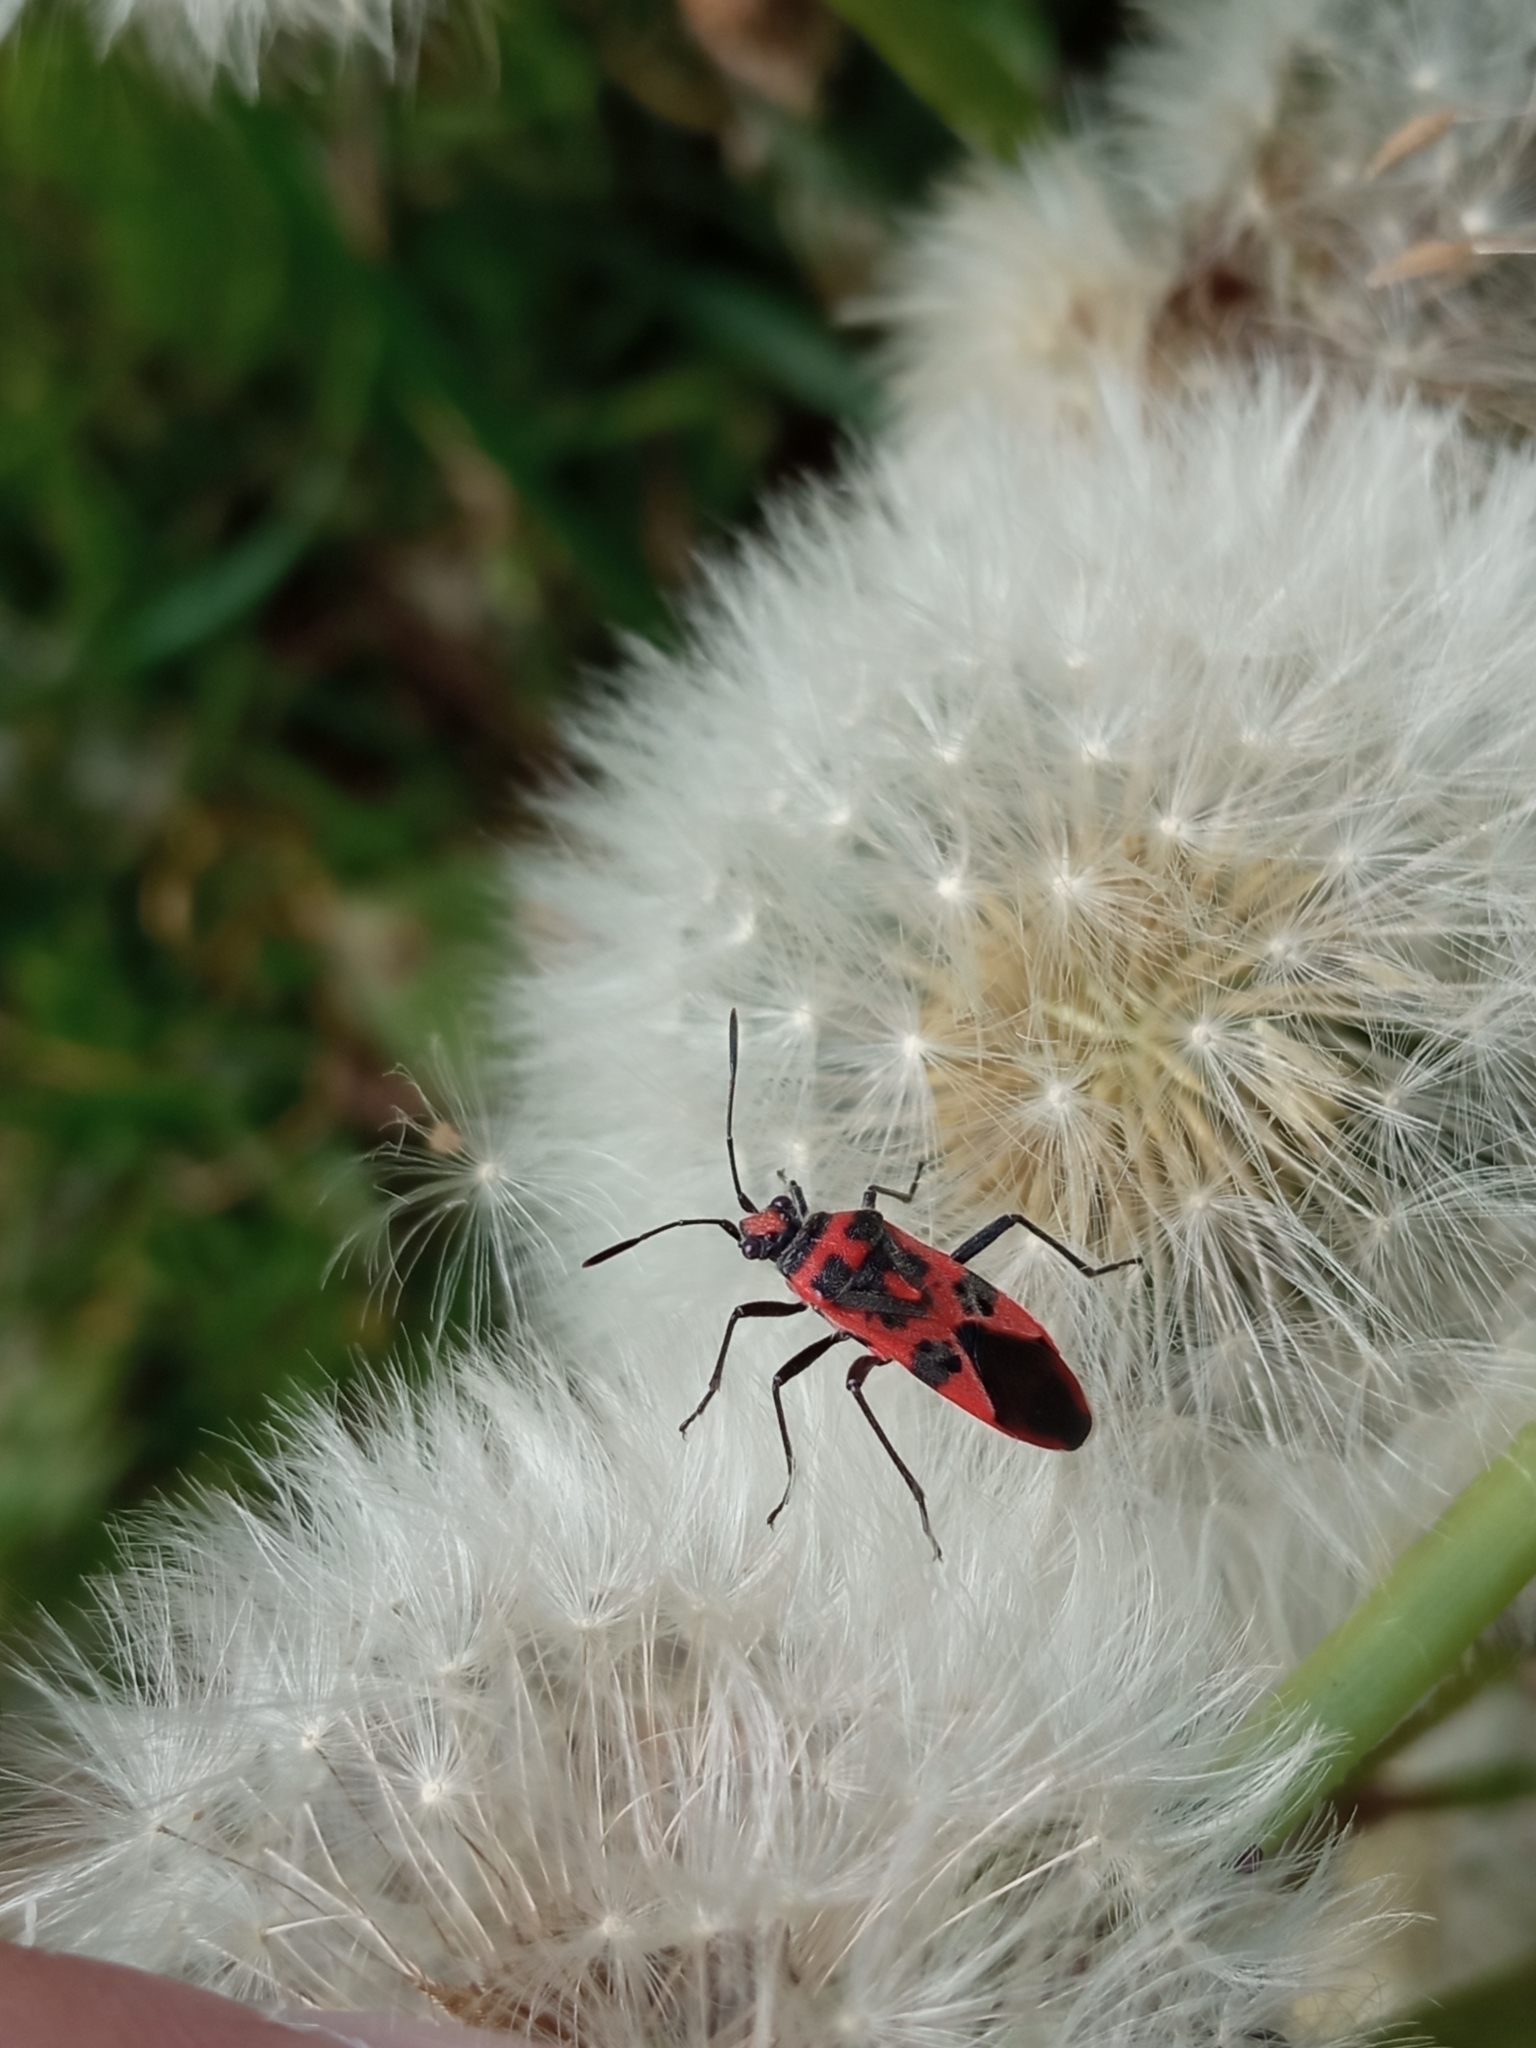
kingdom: Animalia
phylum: Arthropoda
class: Insecta
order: Hemiptera
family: Rhopalidae
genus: Corizus
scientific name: Corizus hyoscyami
